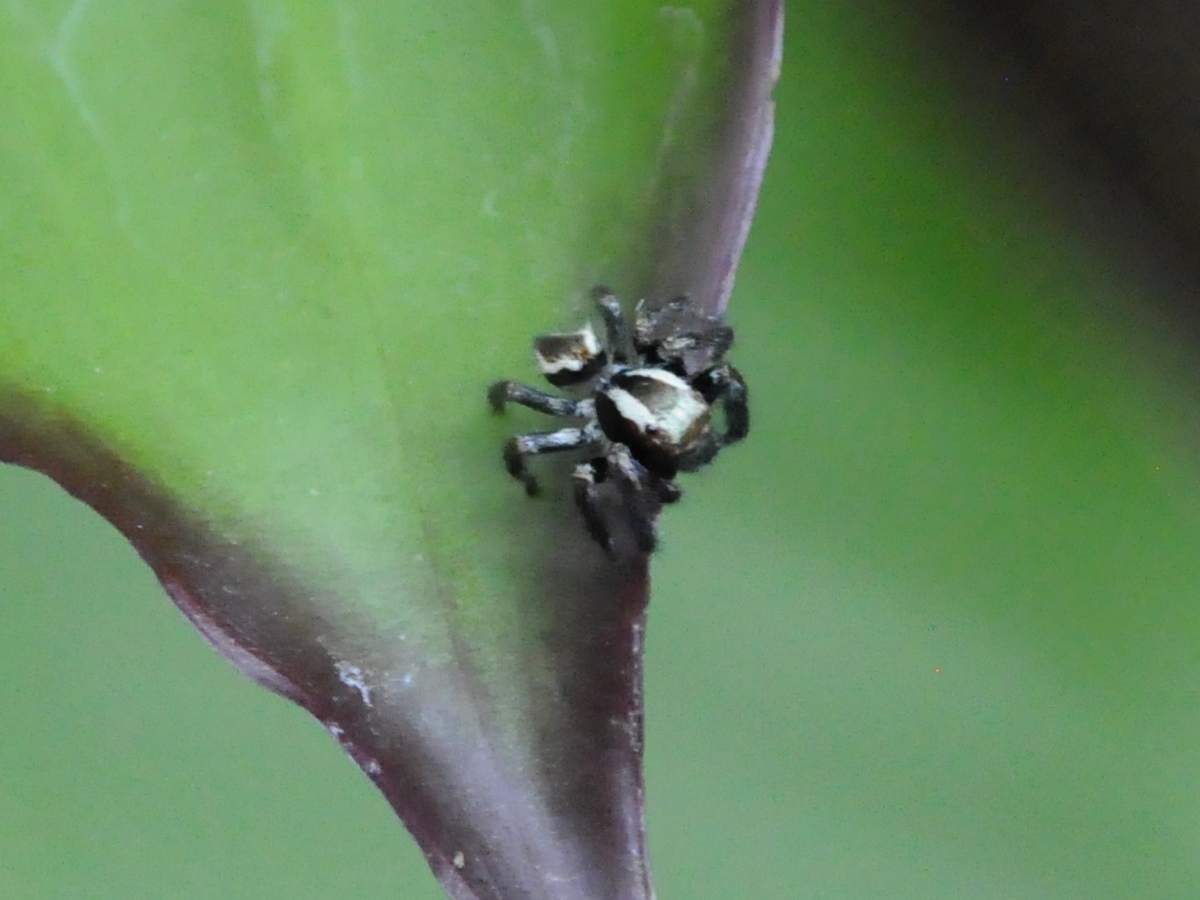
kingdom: Animalia
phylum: Arthropoda
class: Arachnida
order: Araneae
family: Salticidae
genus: Carrhotus
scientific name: Carrhotus viduus
